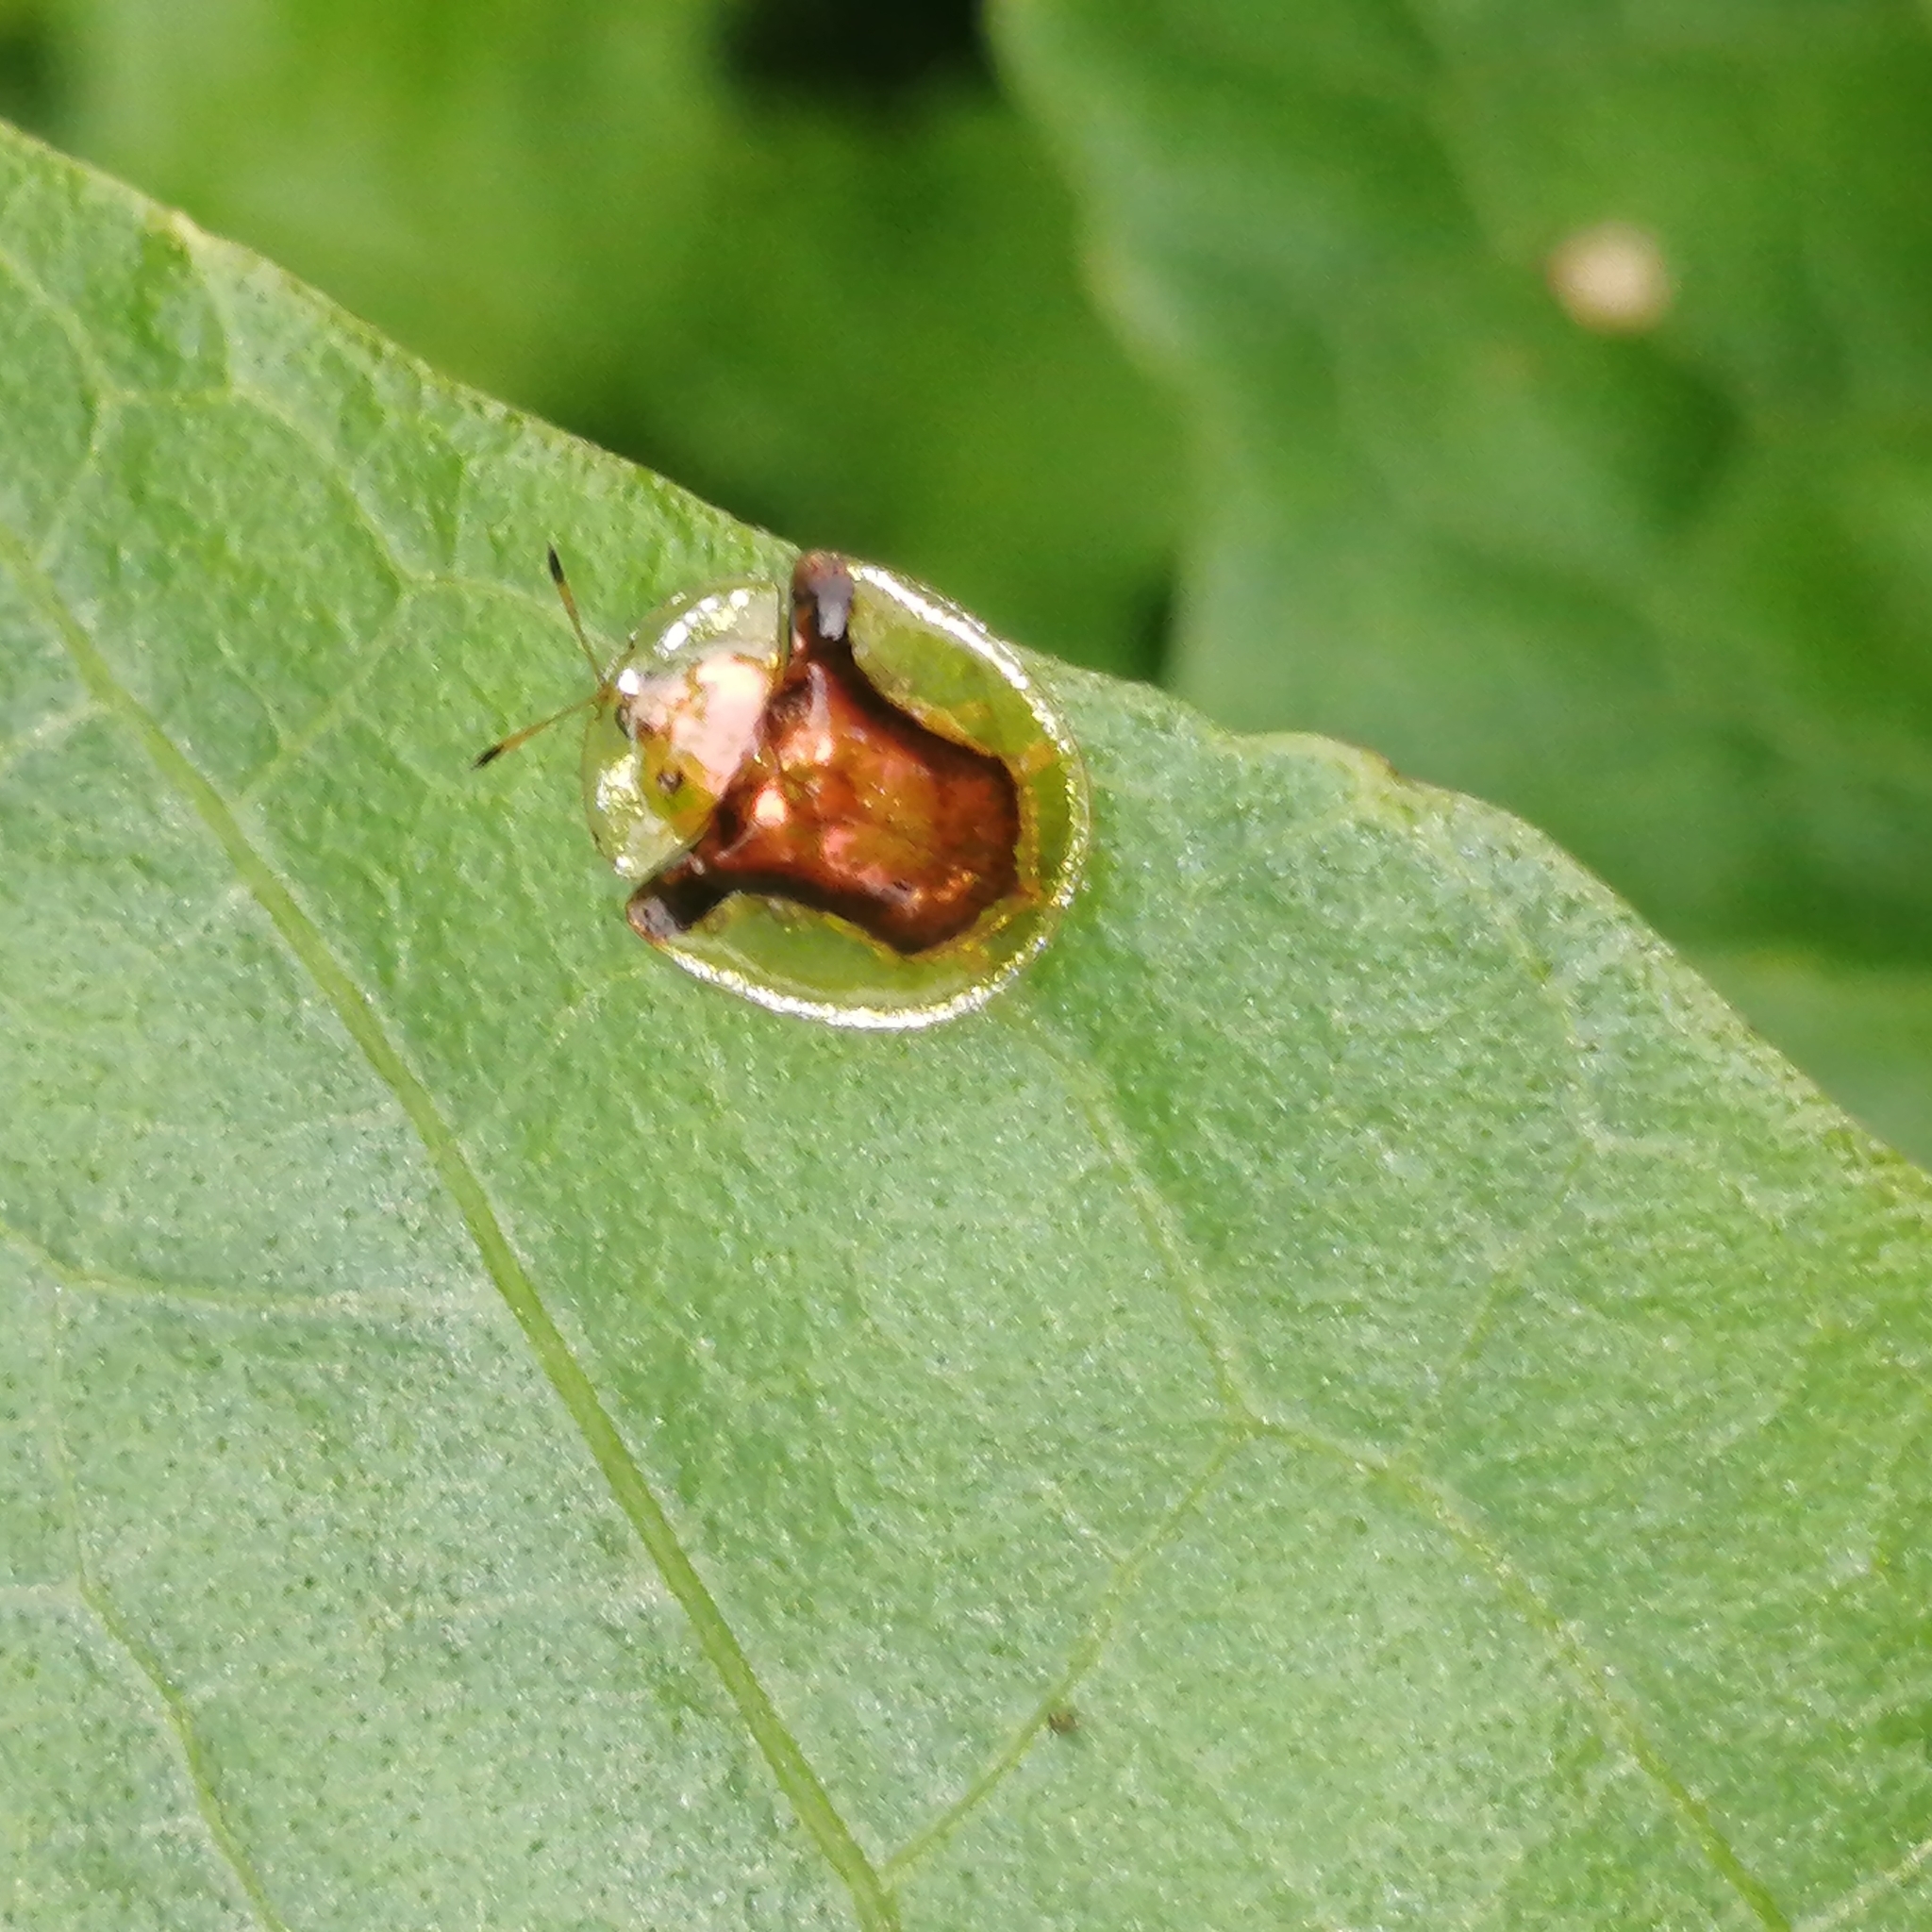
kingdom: Animalia
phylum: Arthropoda
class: Insecta
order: Coleoptera
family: Chrysomelidae
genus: Aspidimorpha
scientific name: Aspidimorpha furcata
